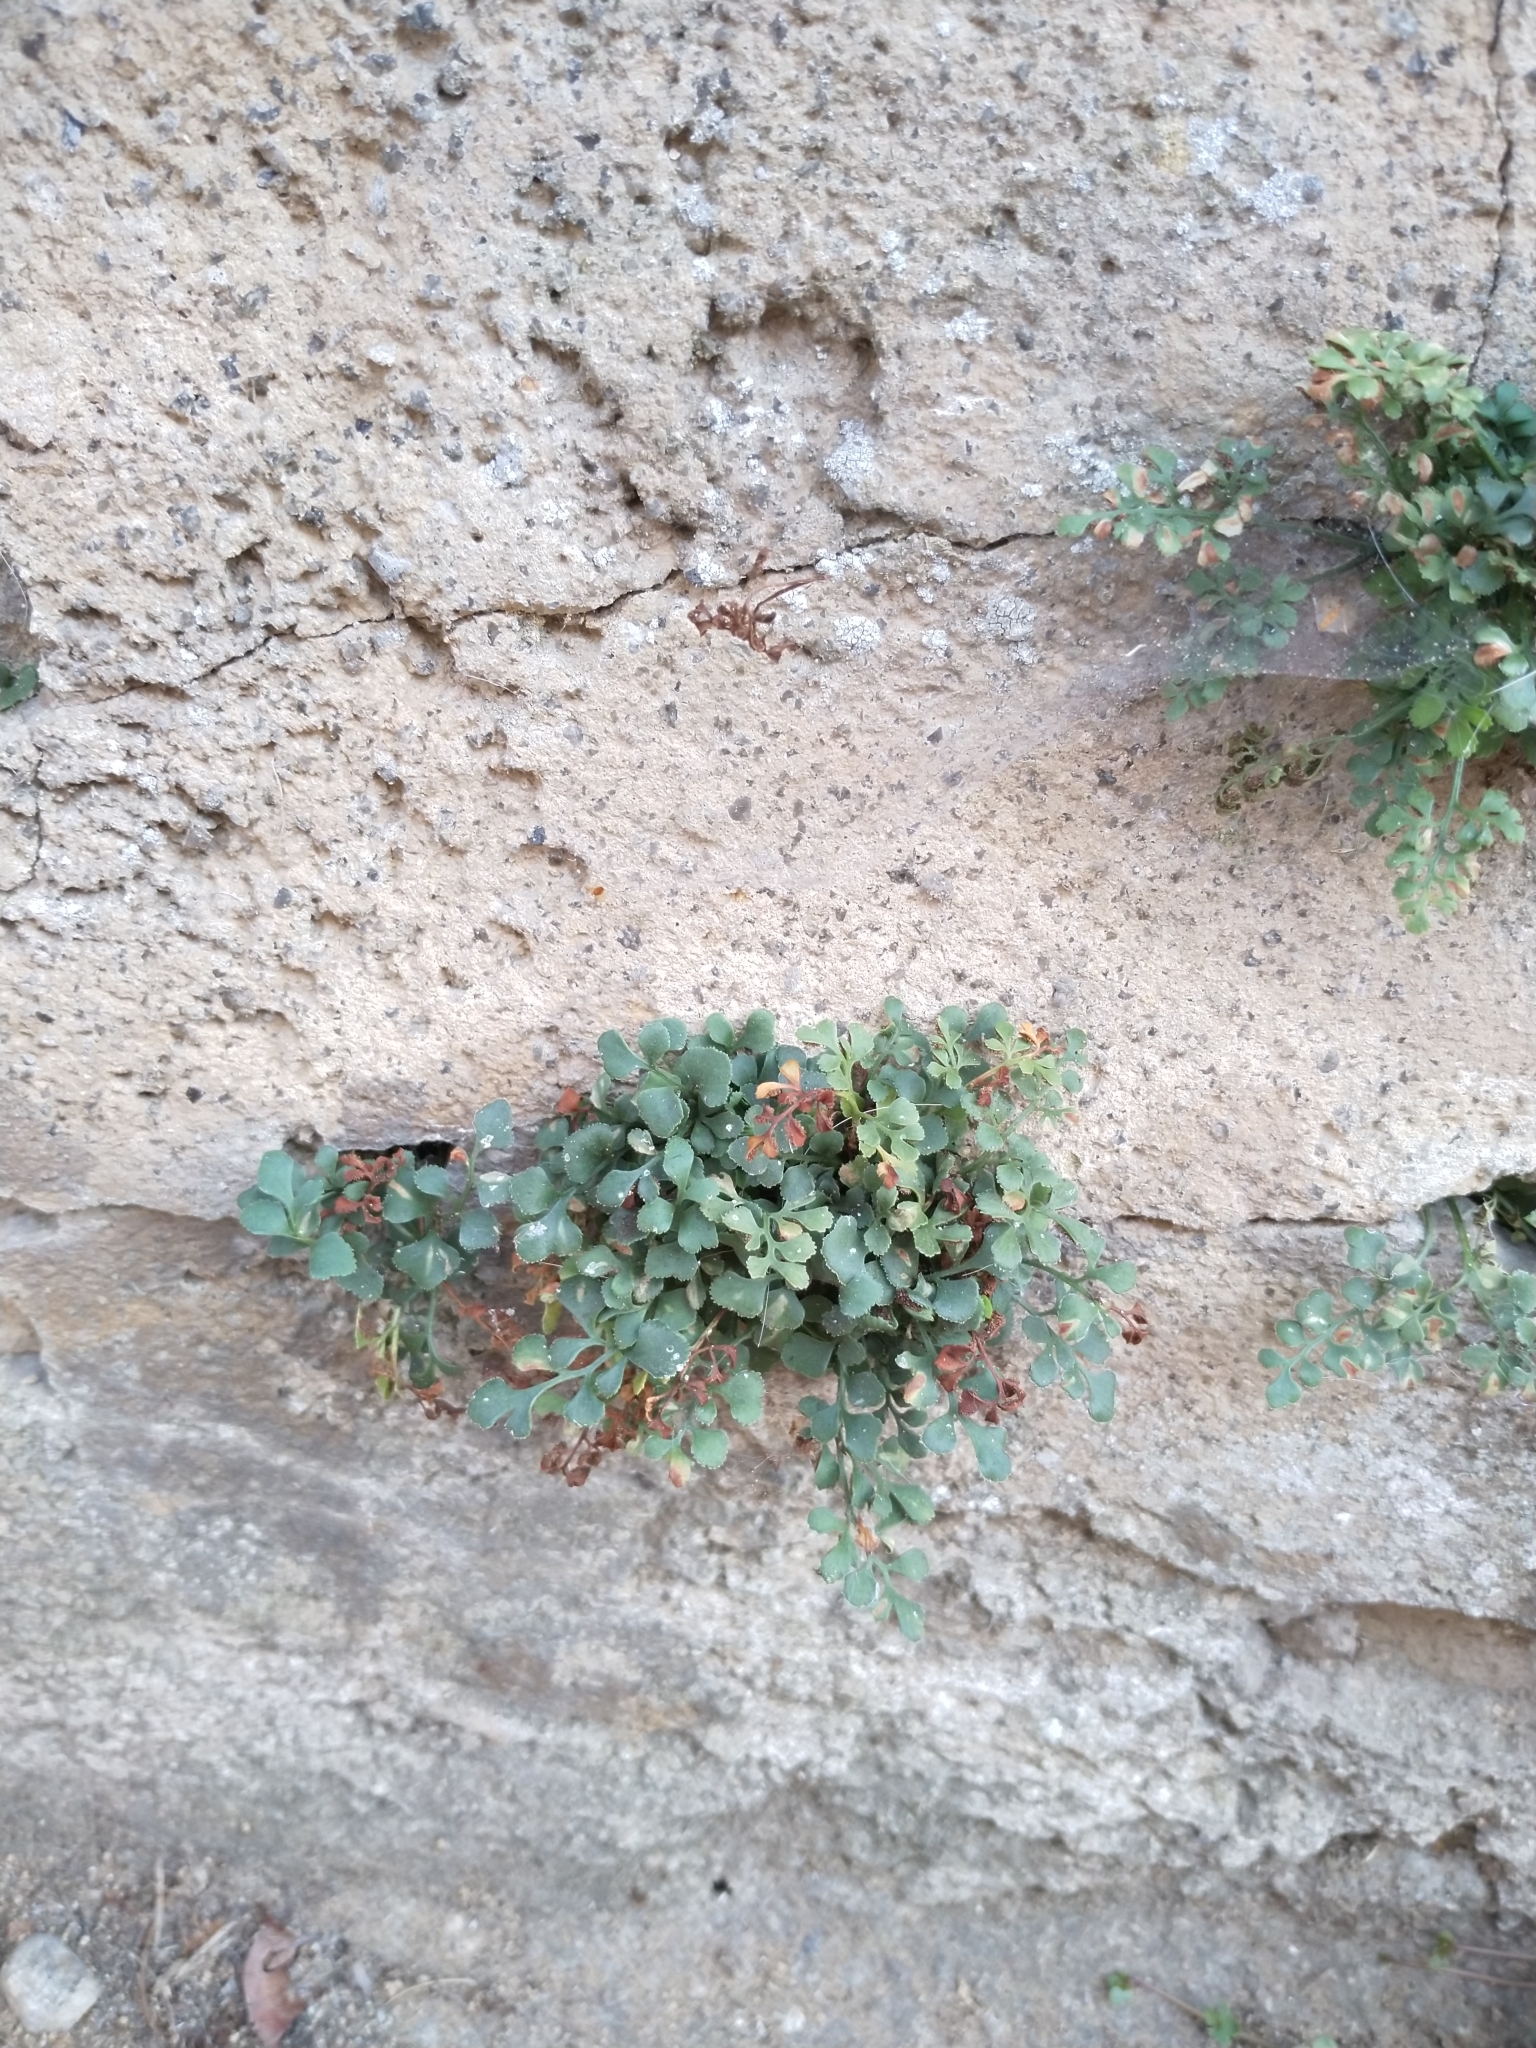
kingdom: Plantae
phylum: Tracheophyta
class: Polypodiopsida
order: Polypodiales
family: Aspleniaceae
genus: Asplenium
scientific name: Asplenium ruta-muraria
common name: Wall-rue
